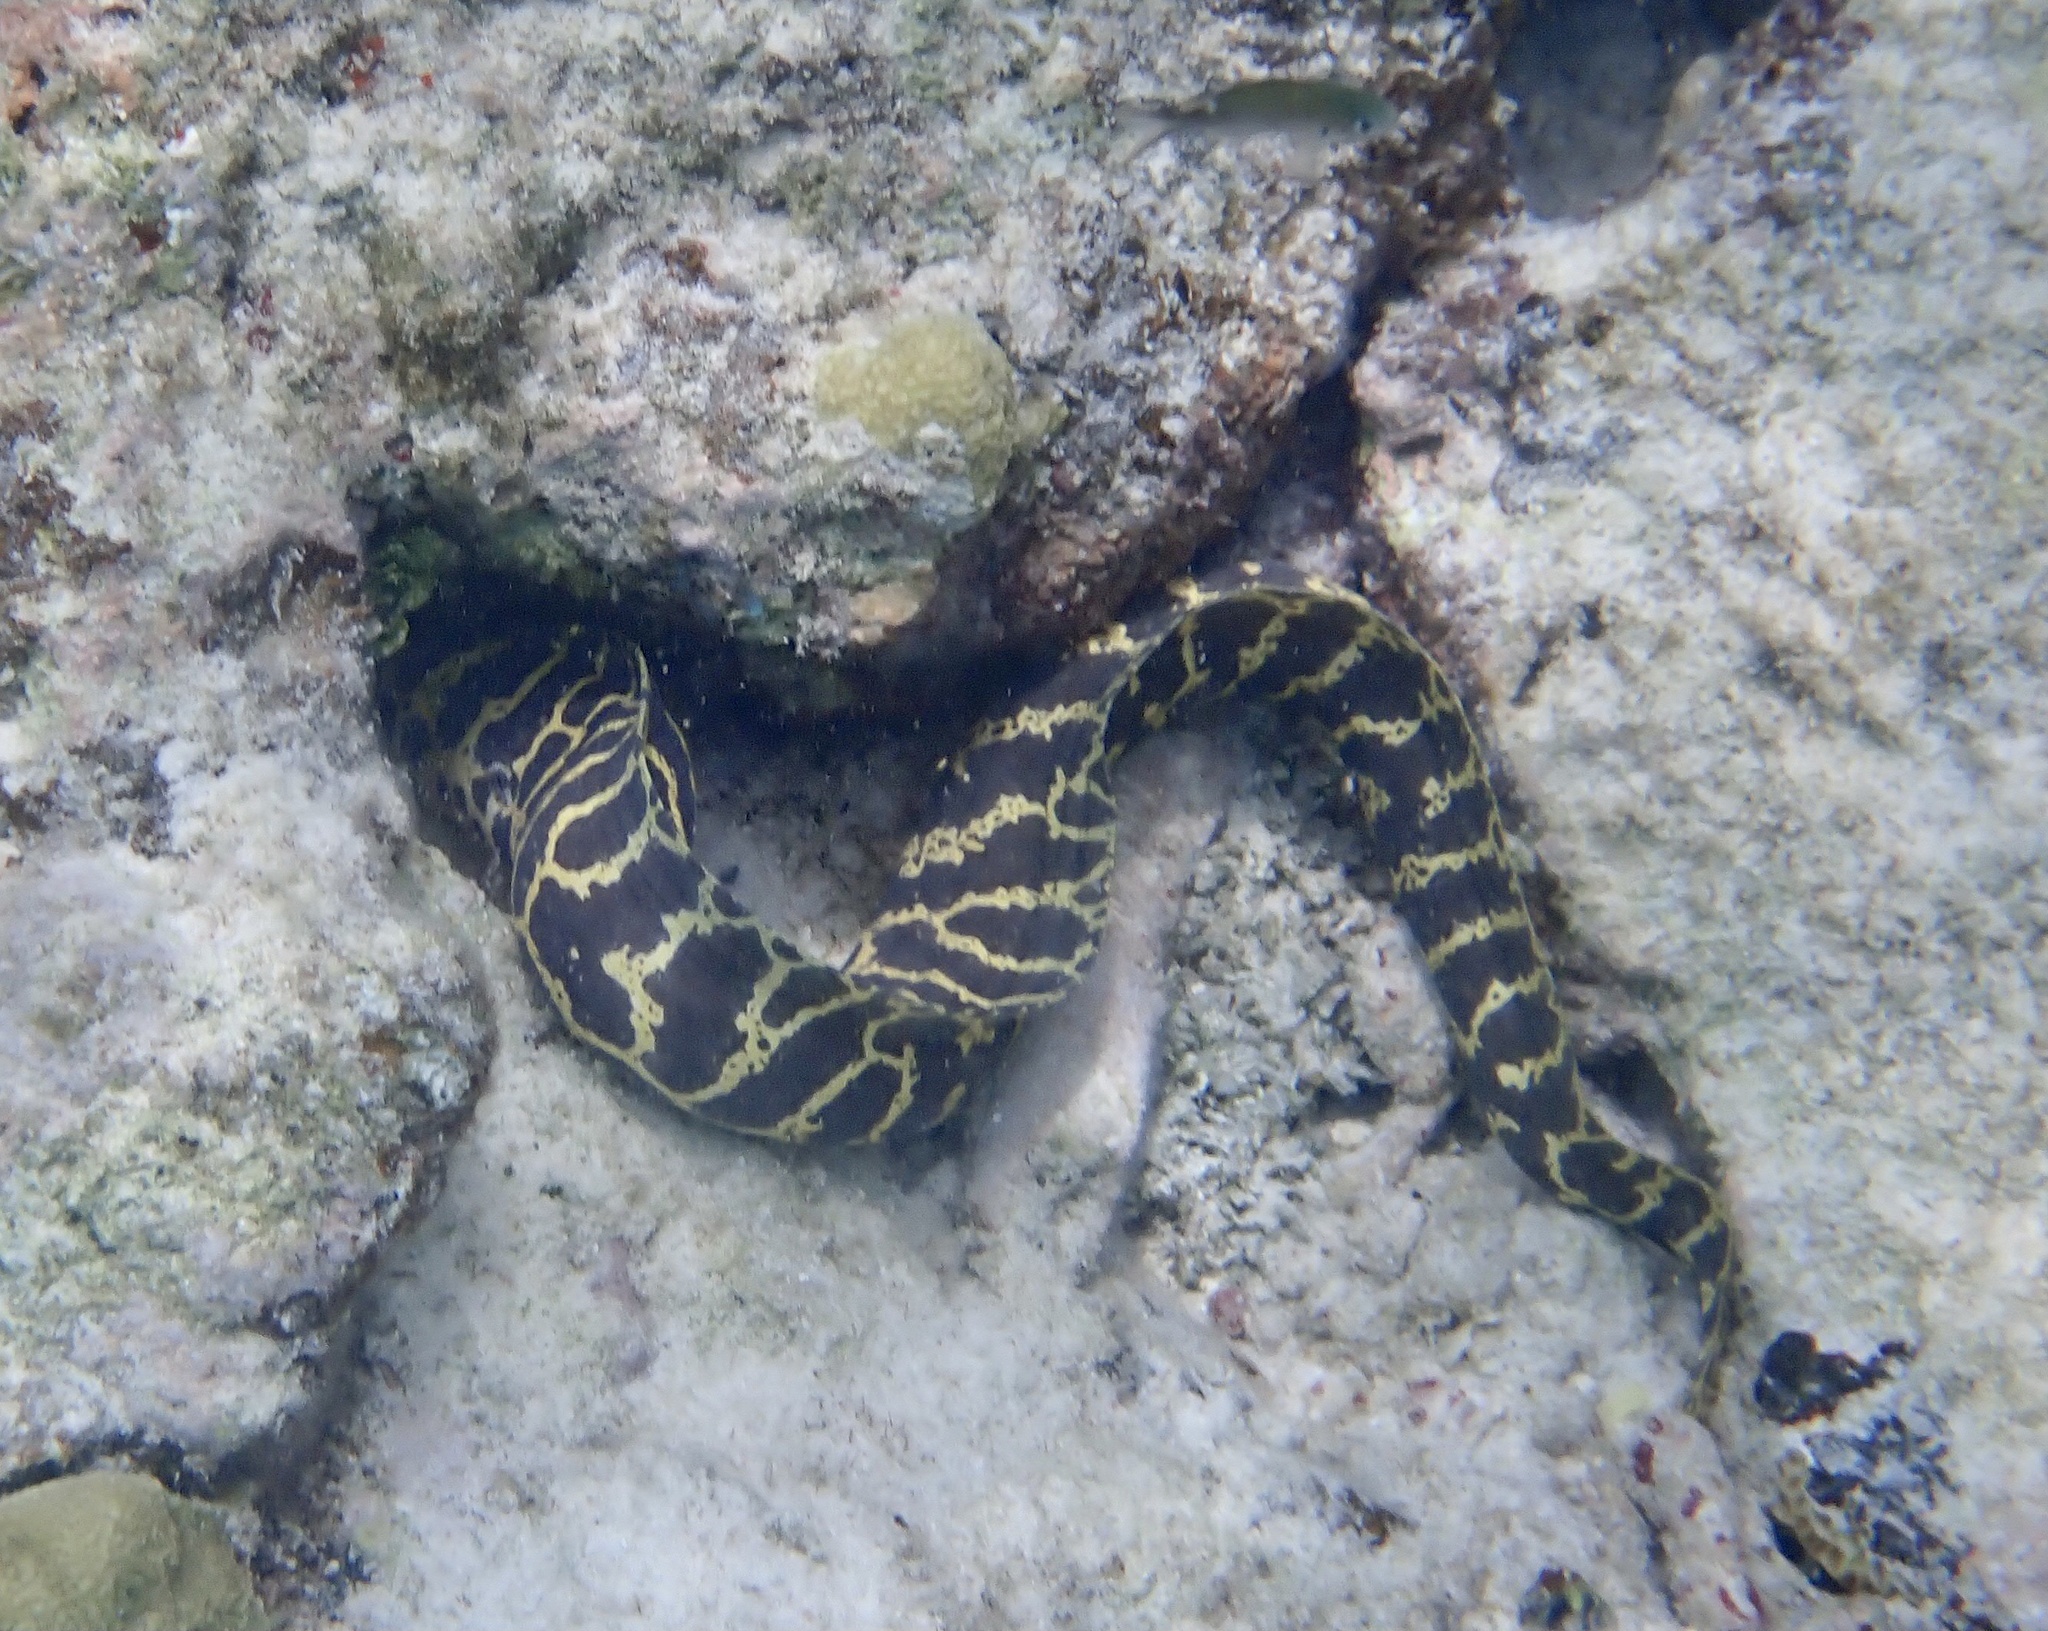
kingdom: Animalia
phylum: Chordata
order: Anguilliformes
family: Muraenidae
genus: Echidna
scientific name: Echidna catenata
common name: Chain moray
